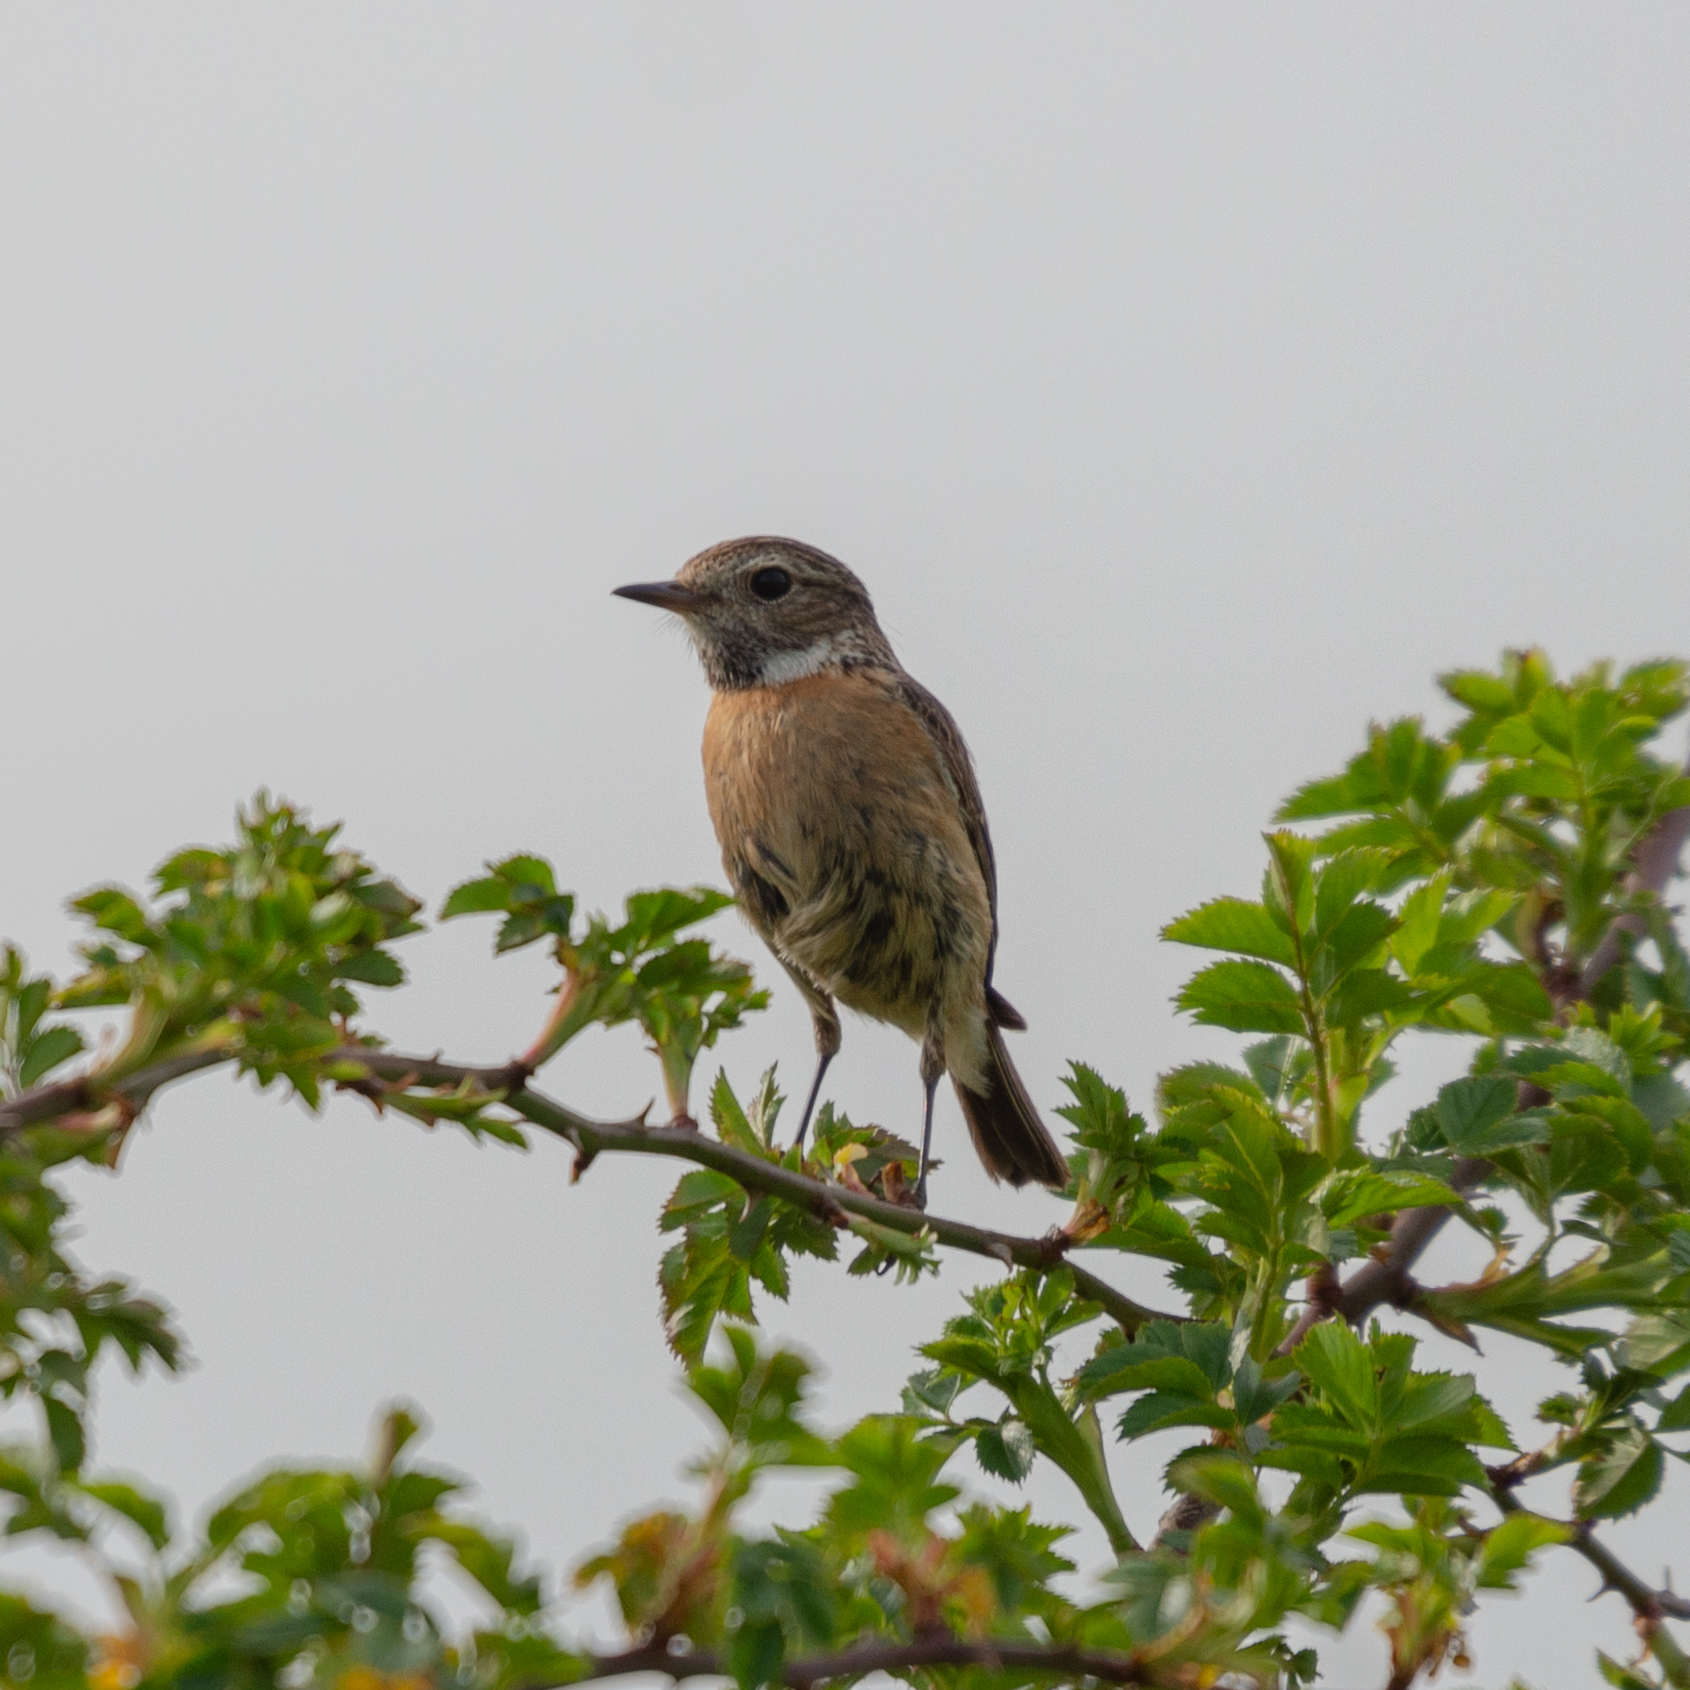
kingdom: Animalia
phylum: Chordata
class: Aves
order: Passeriformes
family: Muscicapidae
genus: Saxicola
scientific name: Saxicola rubicola
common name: European stonechat
